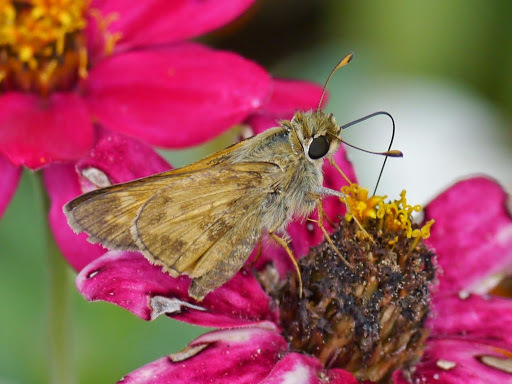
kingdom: Animalia
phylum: Arthropoda
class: Insecta
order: Lepidoptera
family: Hesperiidae
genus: Atalopedes
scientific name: Atalopedes
